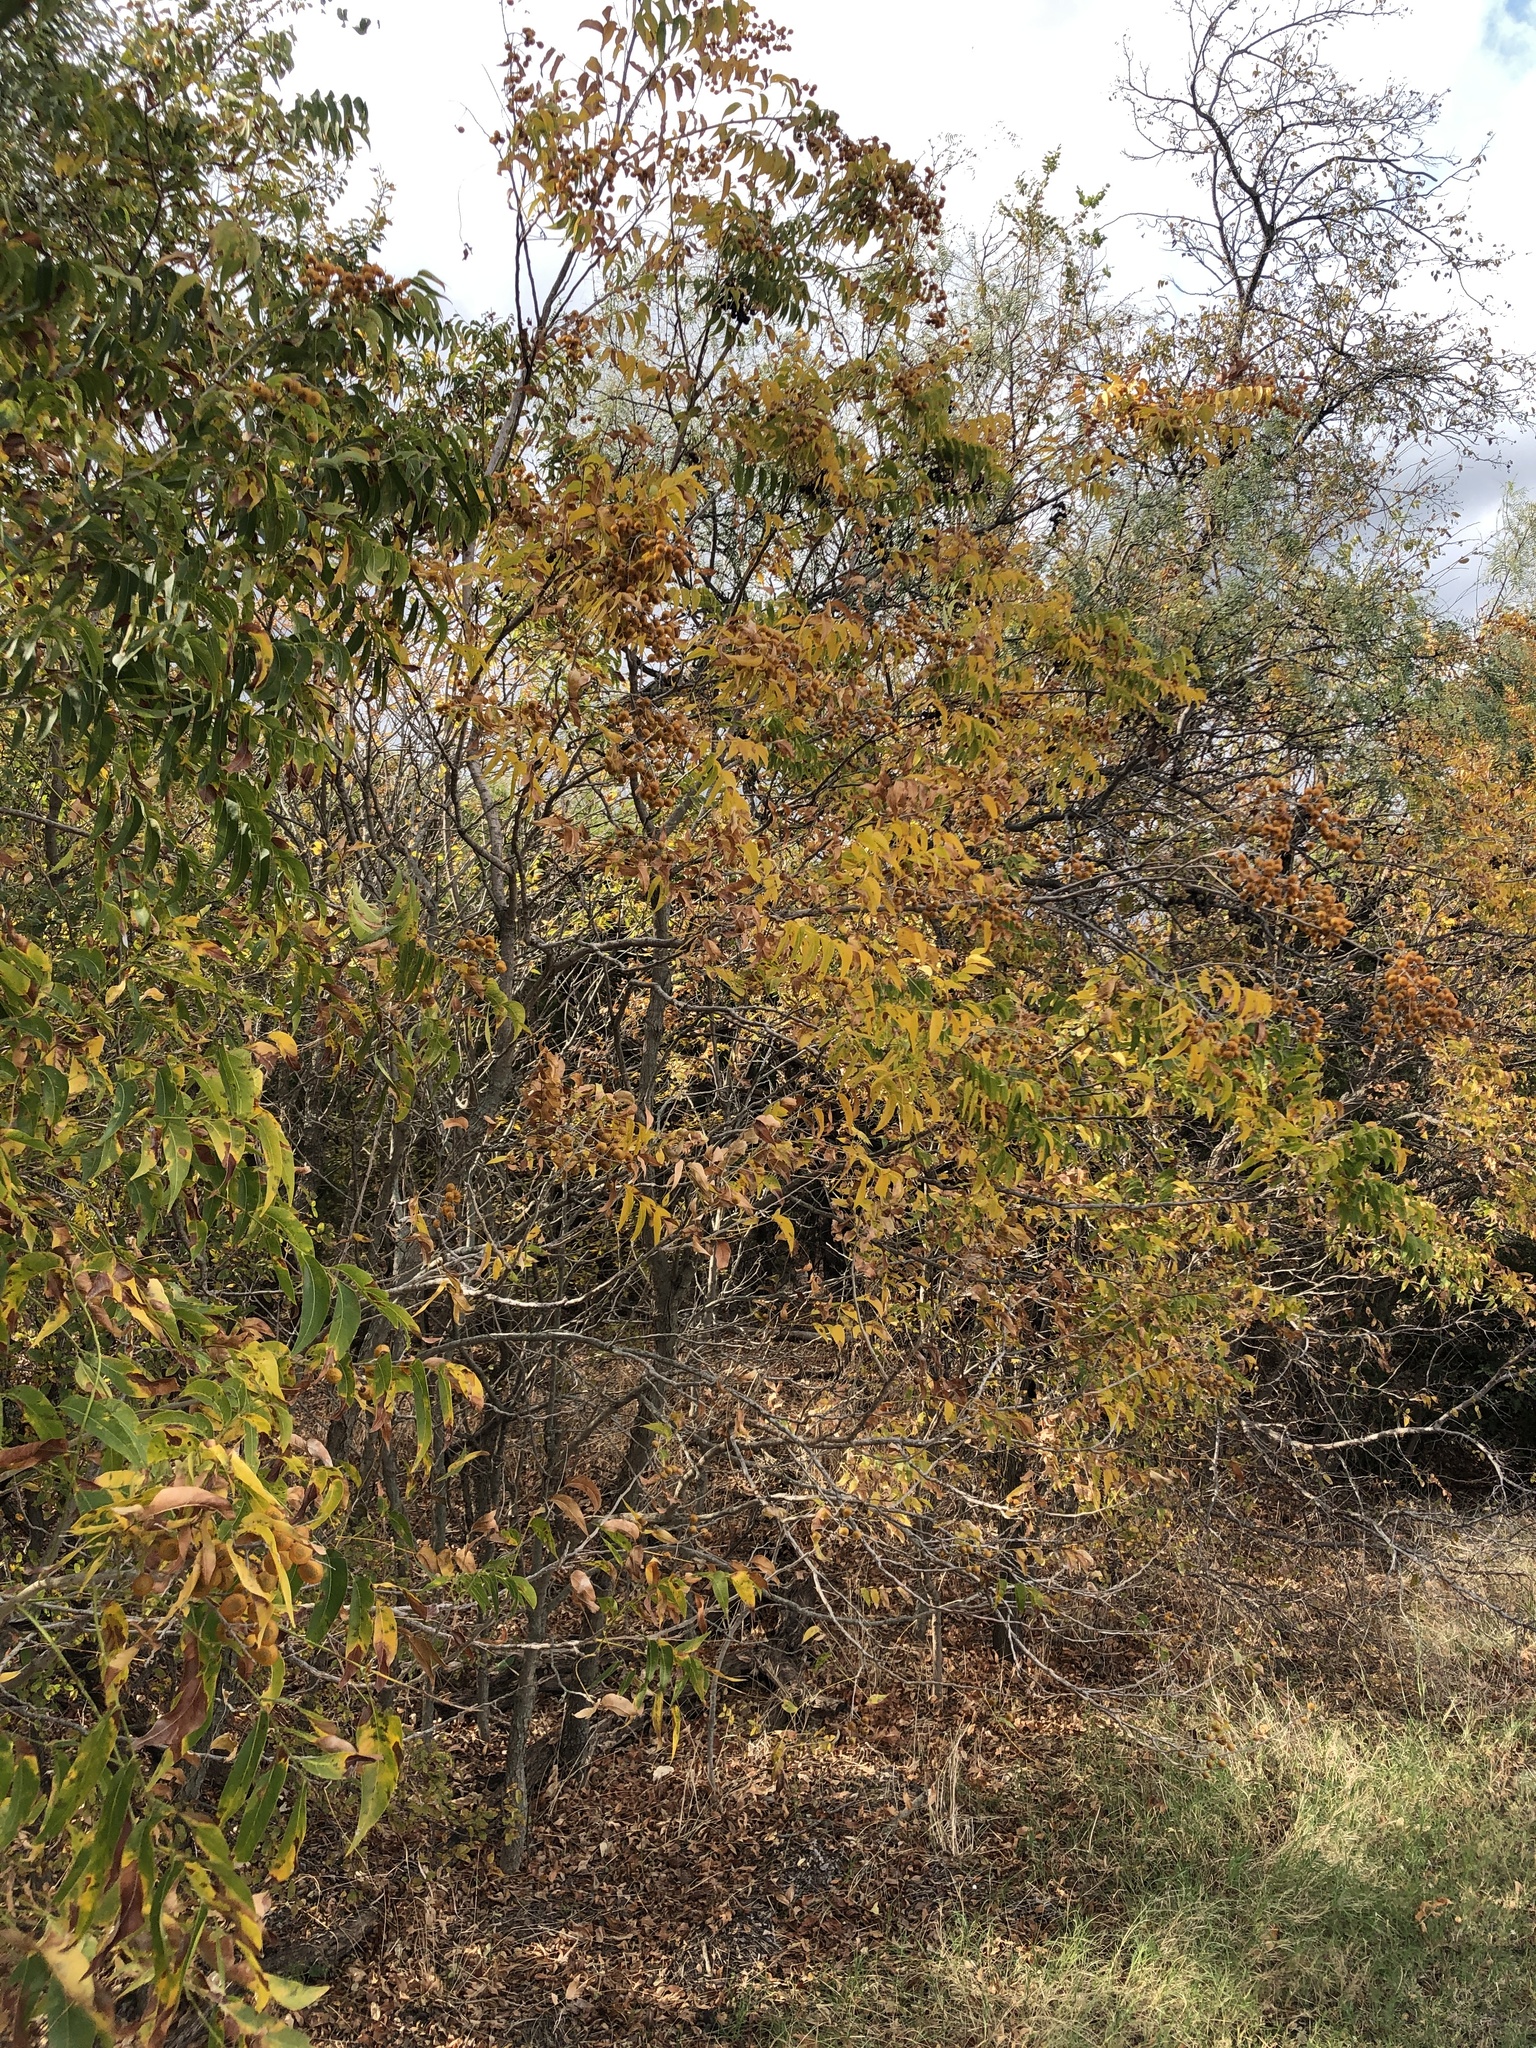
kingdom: Plantae
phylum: Tracheophyta
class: Magnoliopsida
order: Sapindales
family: Sapindaceae
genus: Sapindus
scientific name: Sapindus drummondii
